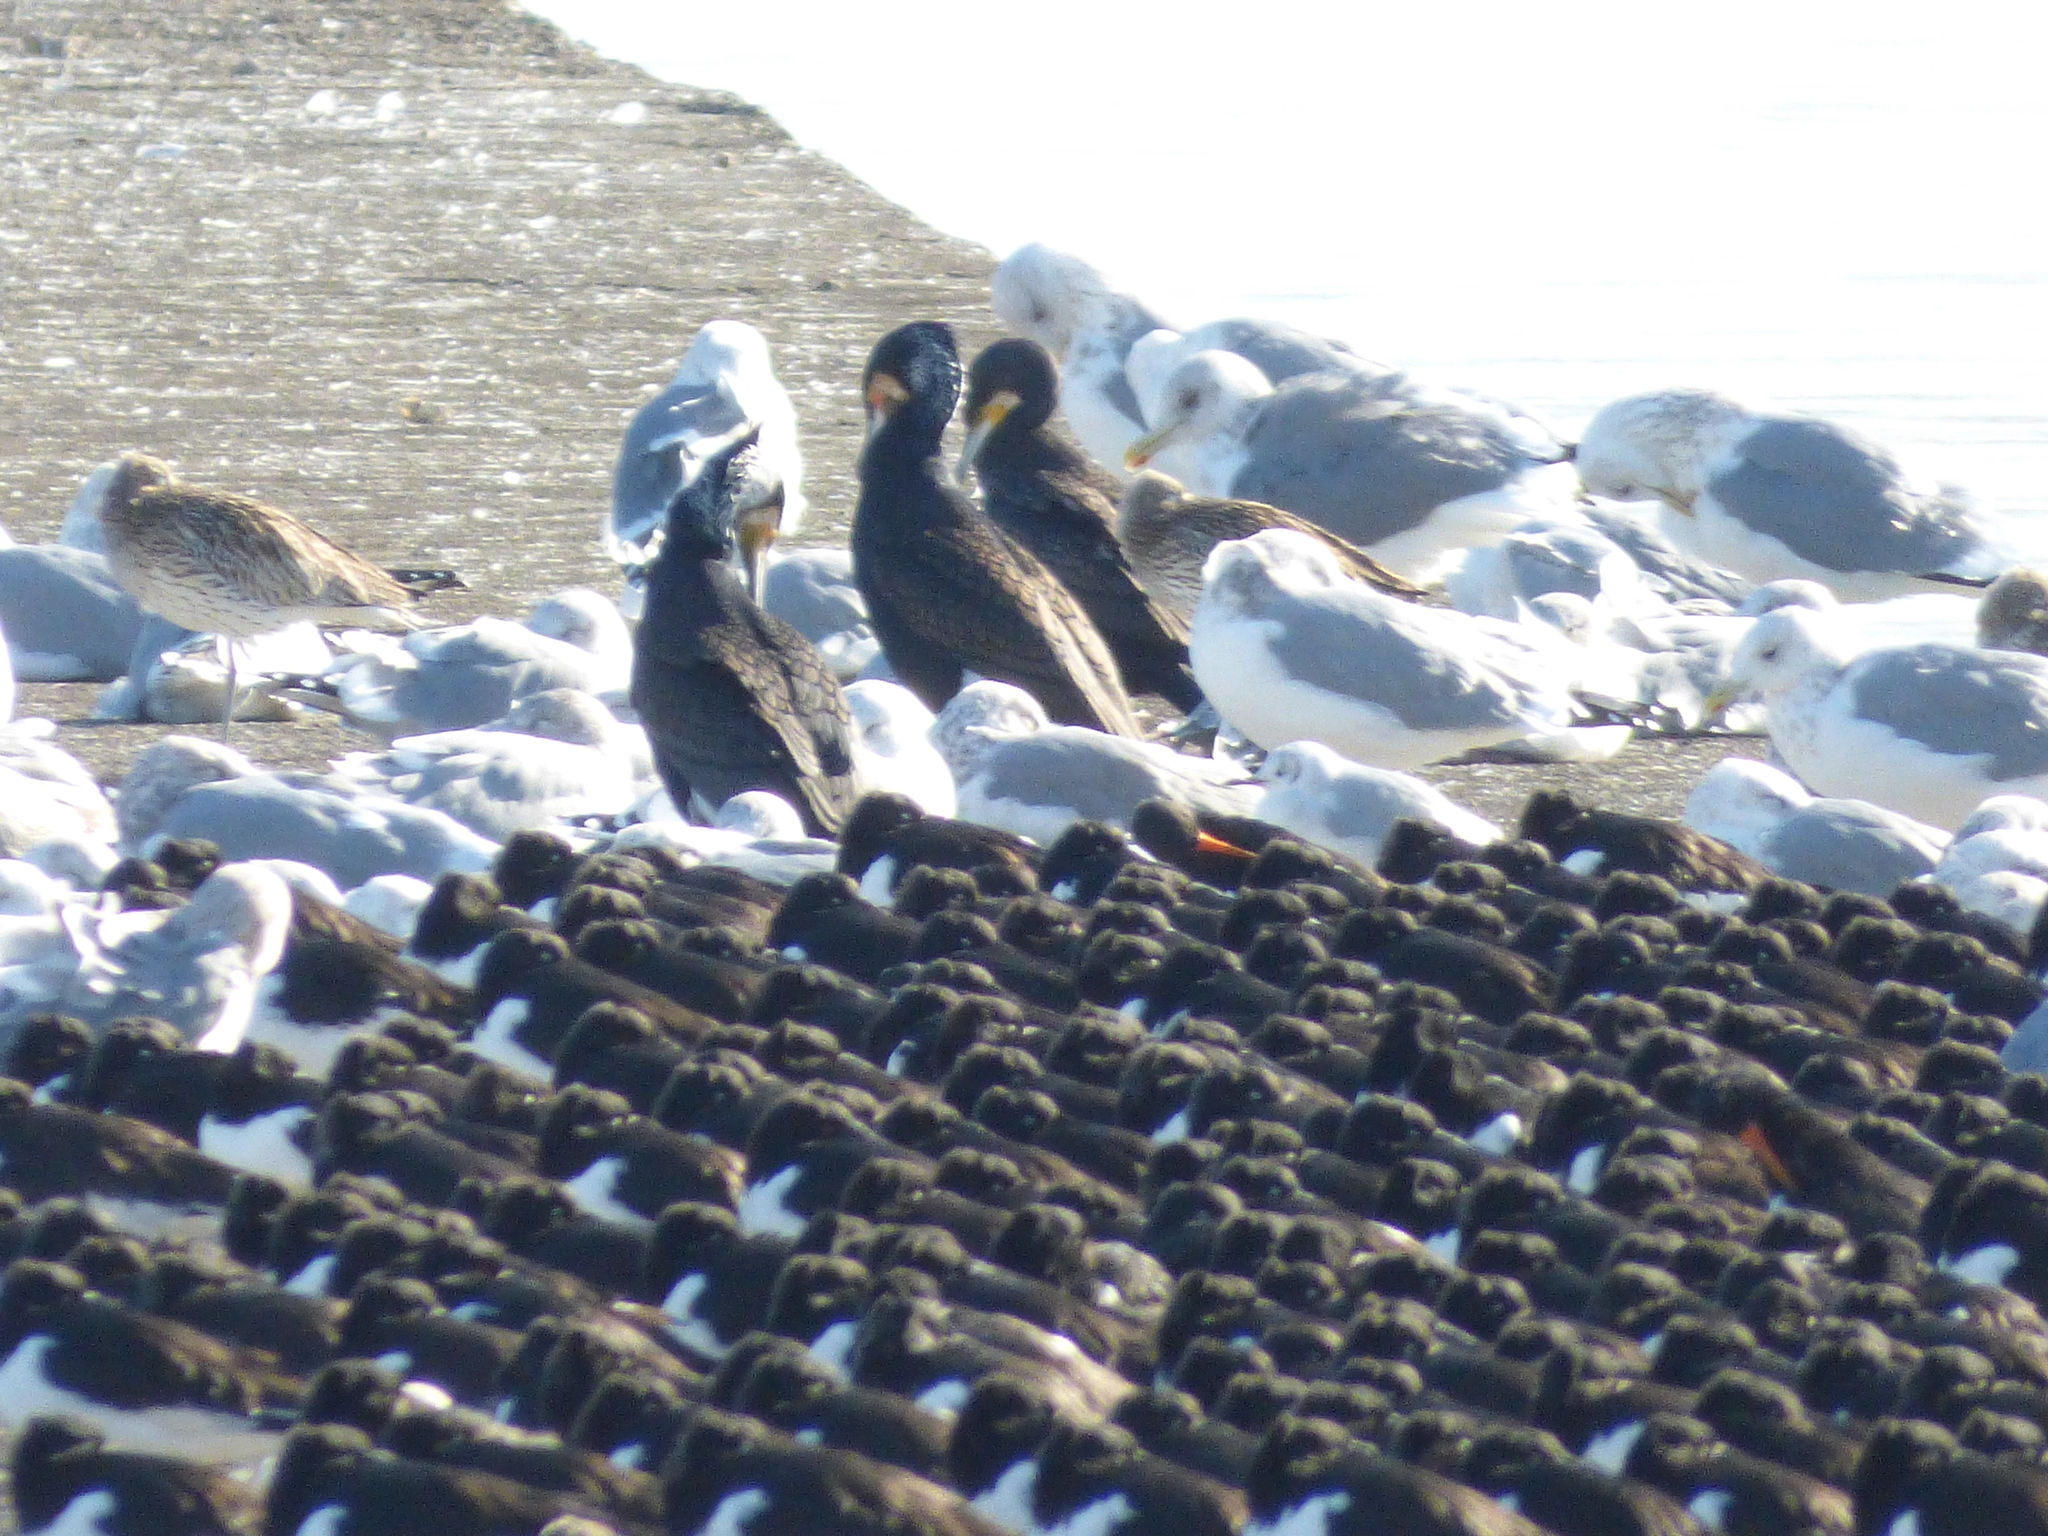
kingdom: Animalia
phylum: Chordata
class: Aves
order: Charadriiformes
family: Laridae
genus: Chroicocephalus
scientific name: Chroicocephalus ridibundus
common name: Black-headed gull
